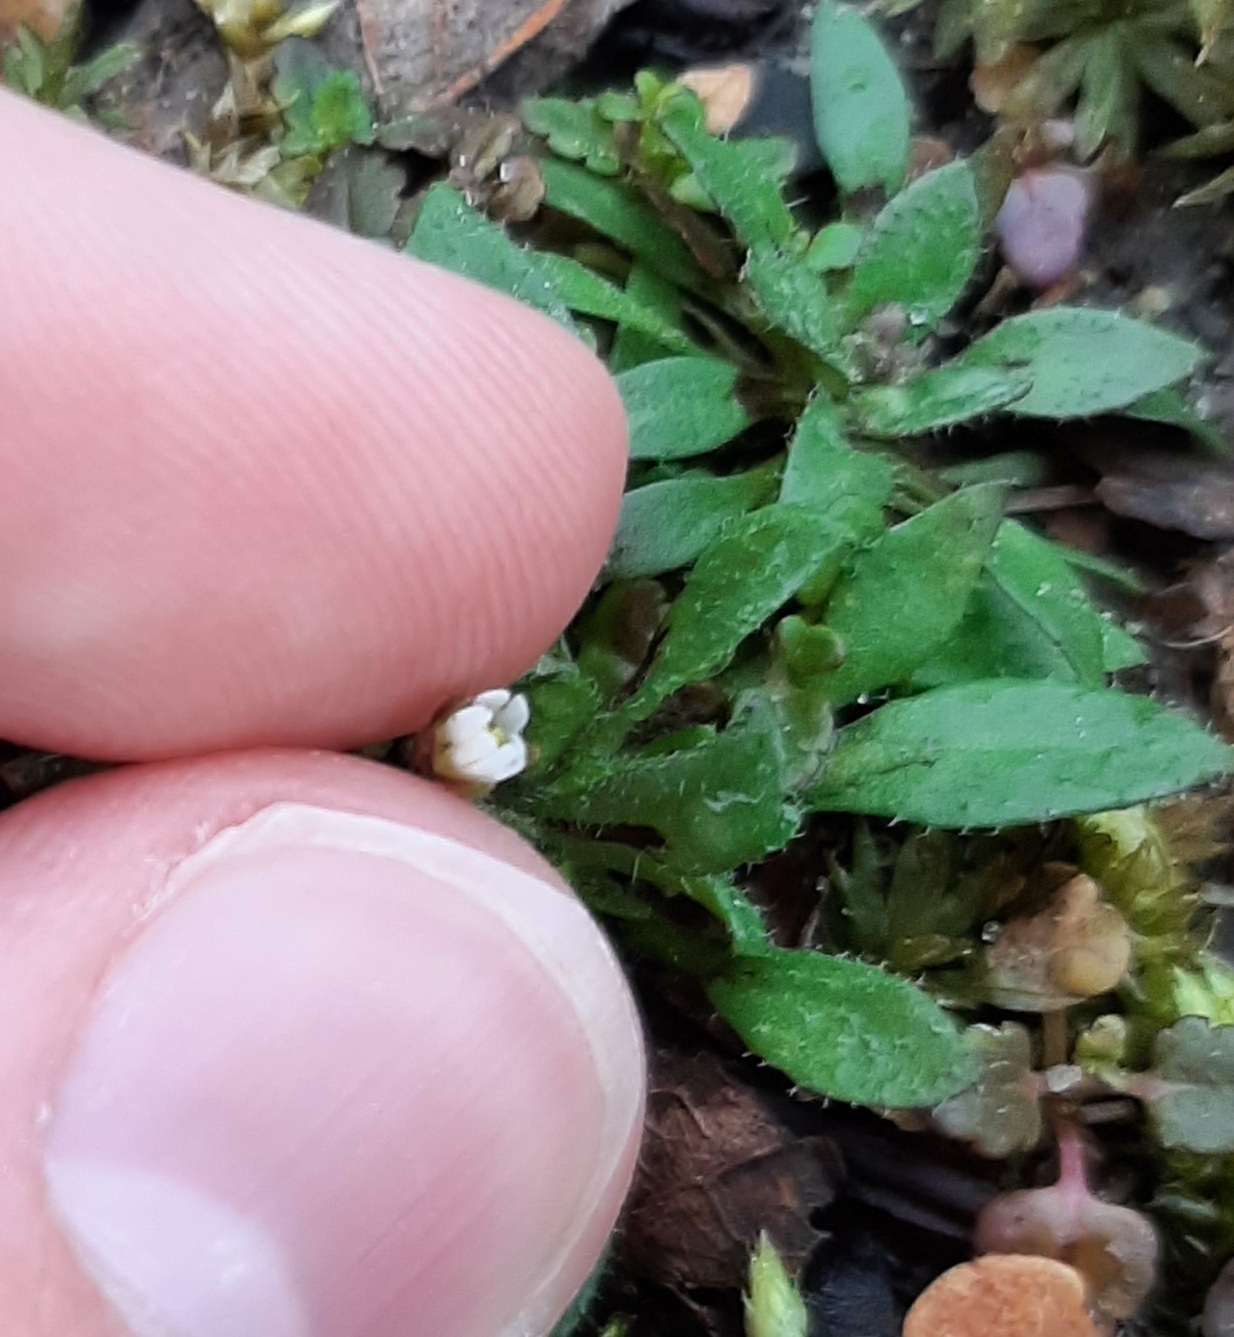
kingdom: Plantae
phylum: Tracheophyta
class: Magnoliopsida
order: Brassicales
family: Brassicaceae
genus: Draba
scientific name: Draba verna
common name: Spring draba
